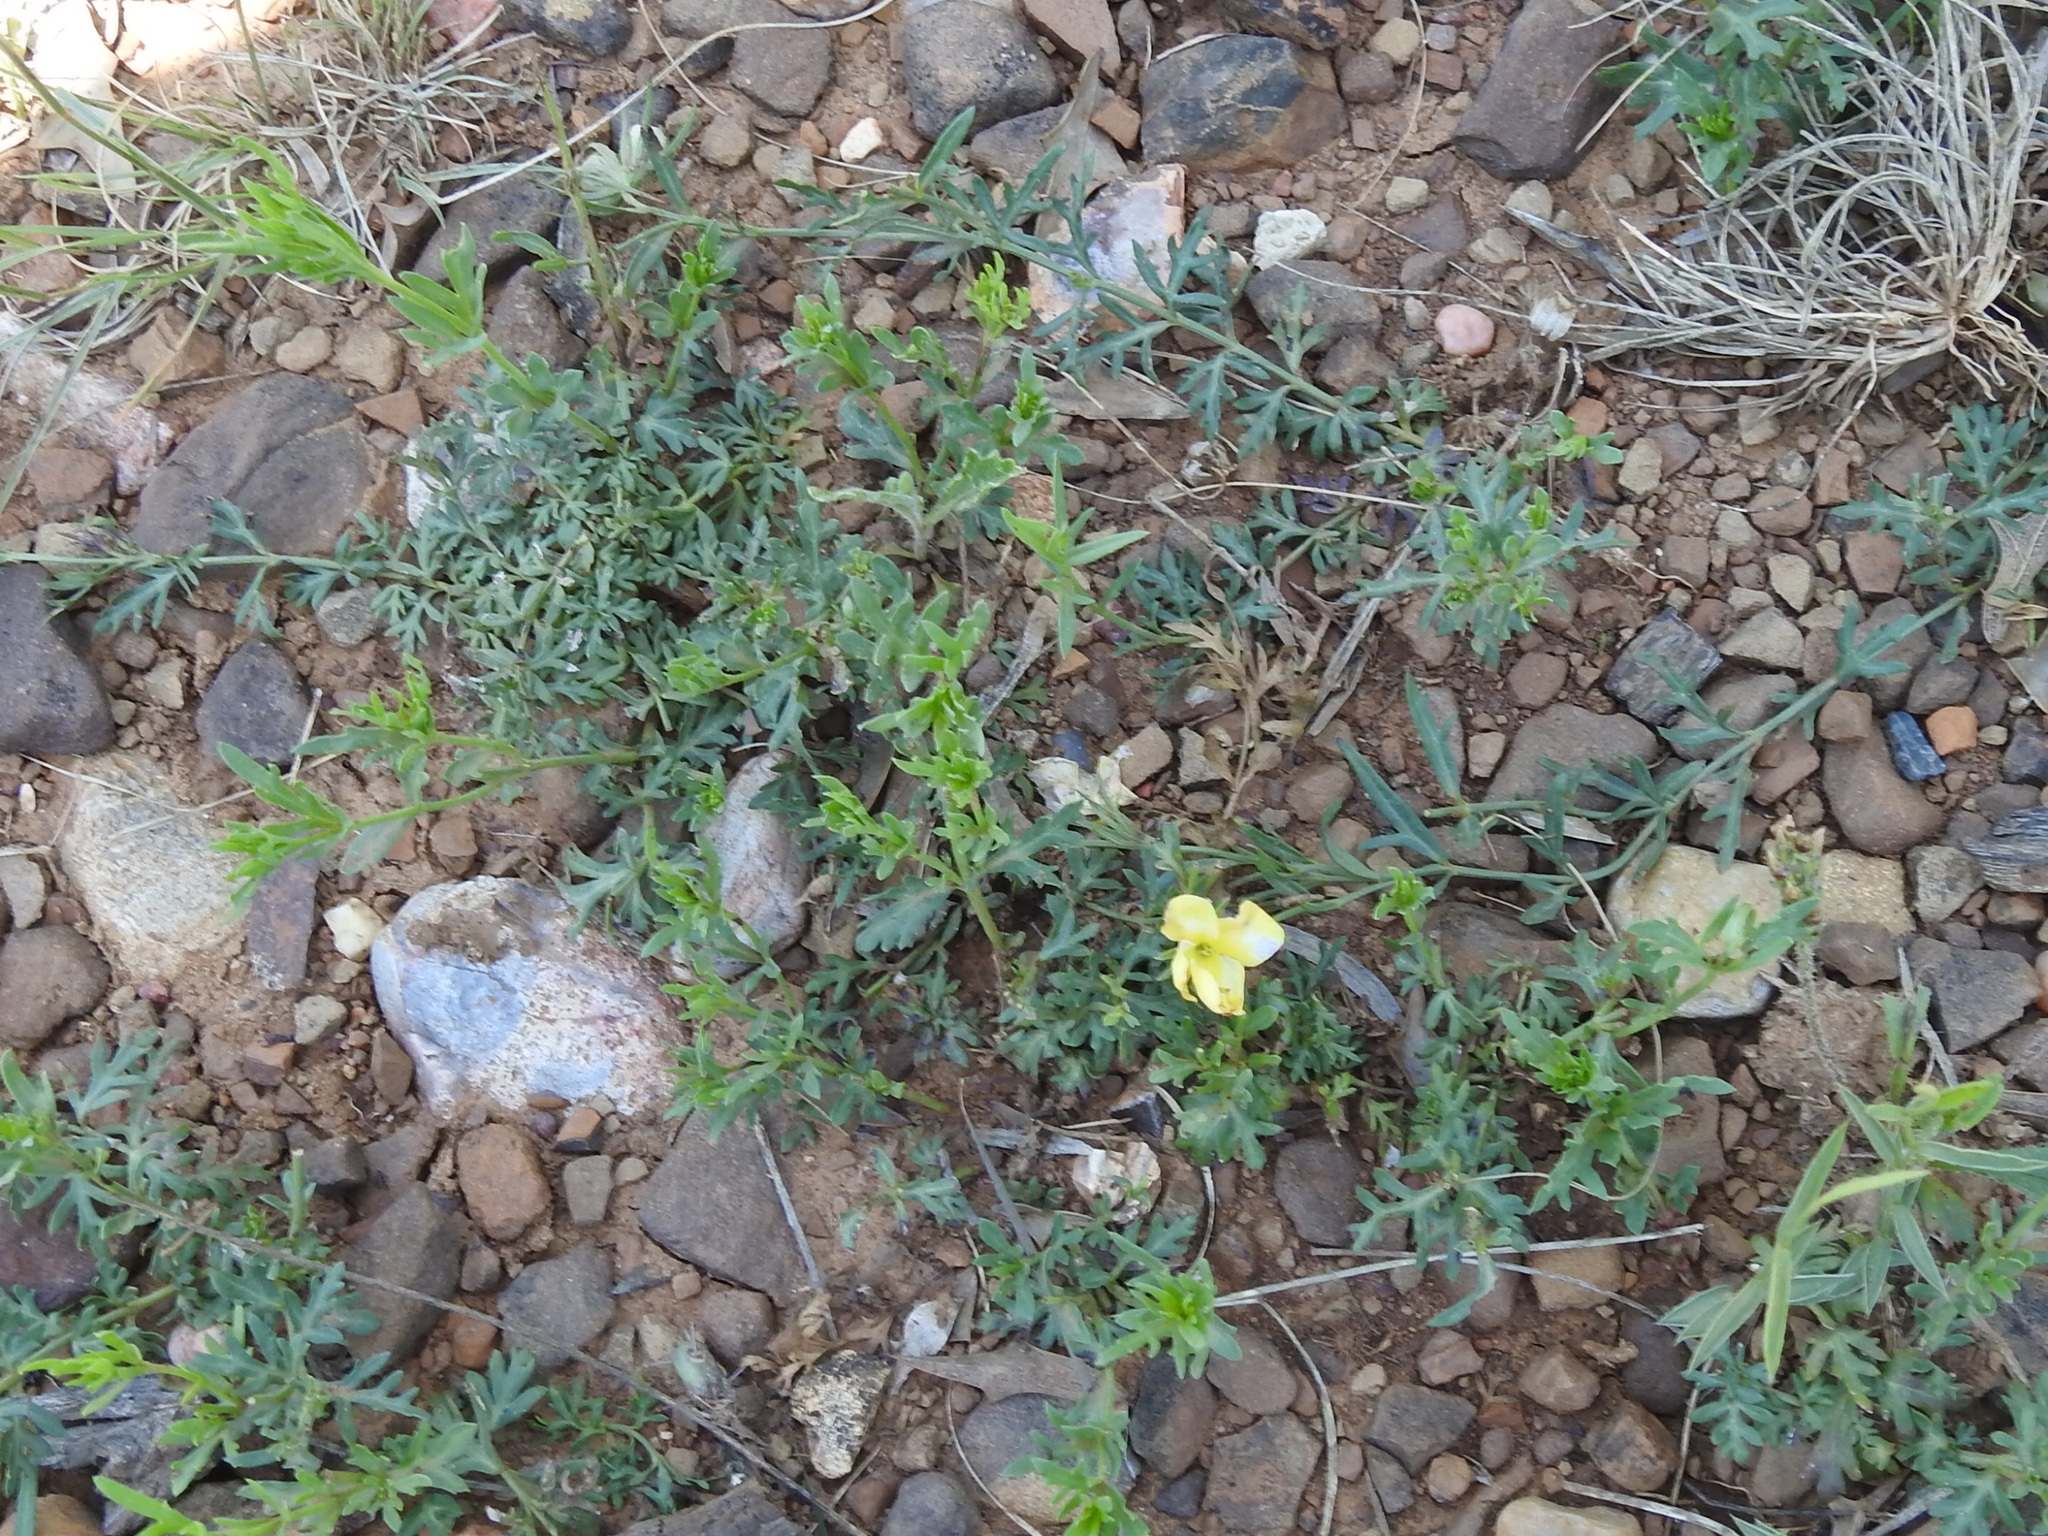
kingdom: Plantae
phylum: Tracheophyta
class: Magnoliopsida
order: Lamiales
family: Oleaceae
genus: Menodora
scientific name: Menodora heterophylla
